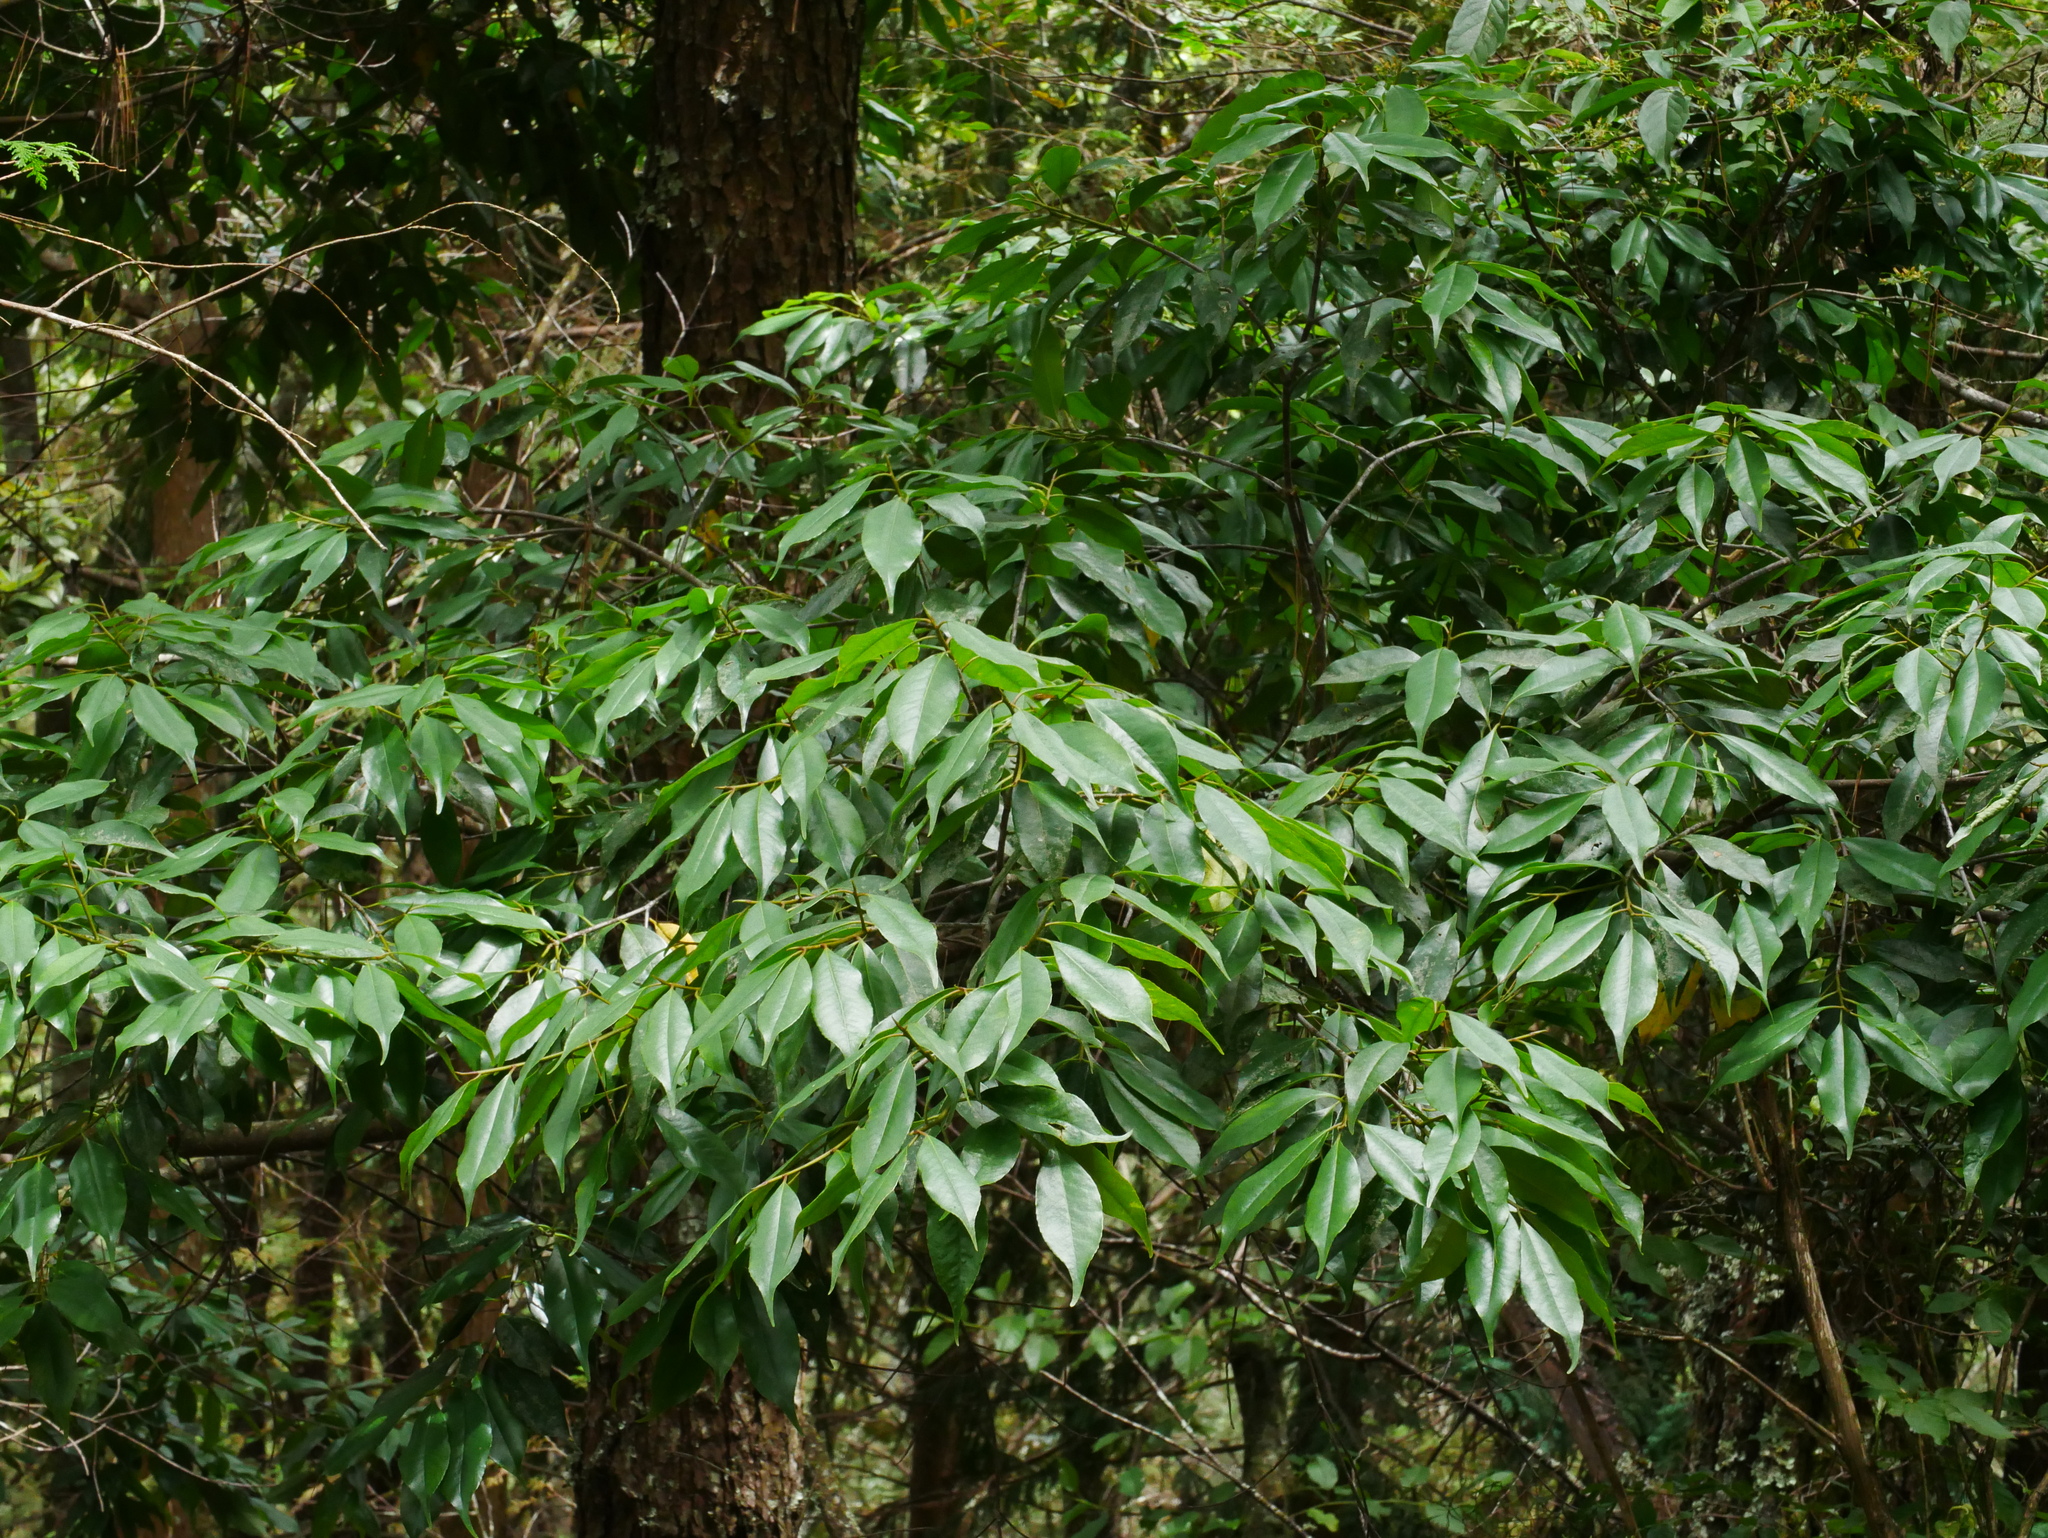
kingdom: Plantae
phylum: Tracheophyta
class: Magnoliopsida
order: Ericales
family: Symplocaceae
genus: Symplocos
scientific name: Symplocos heishanensis
